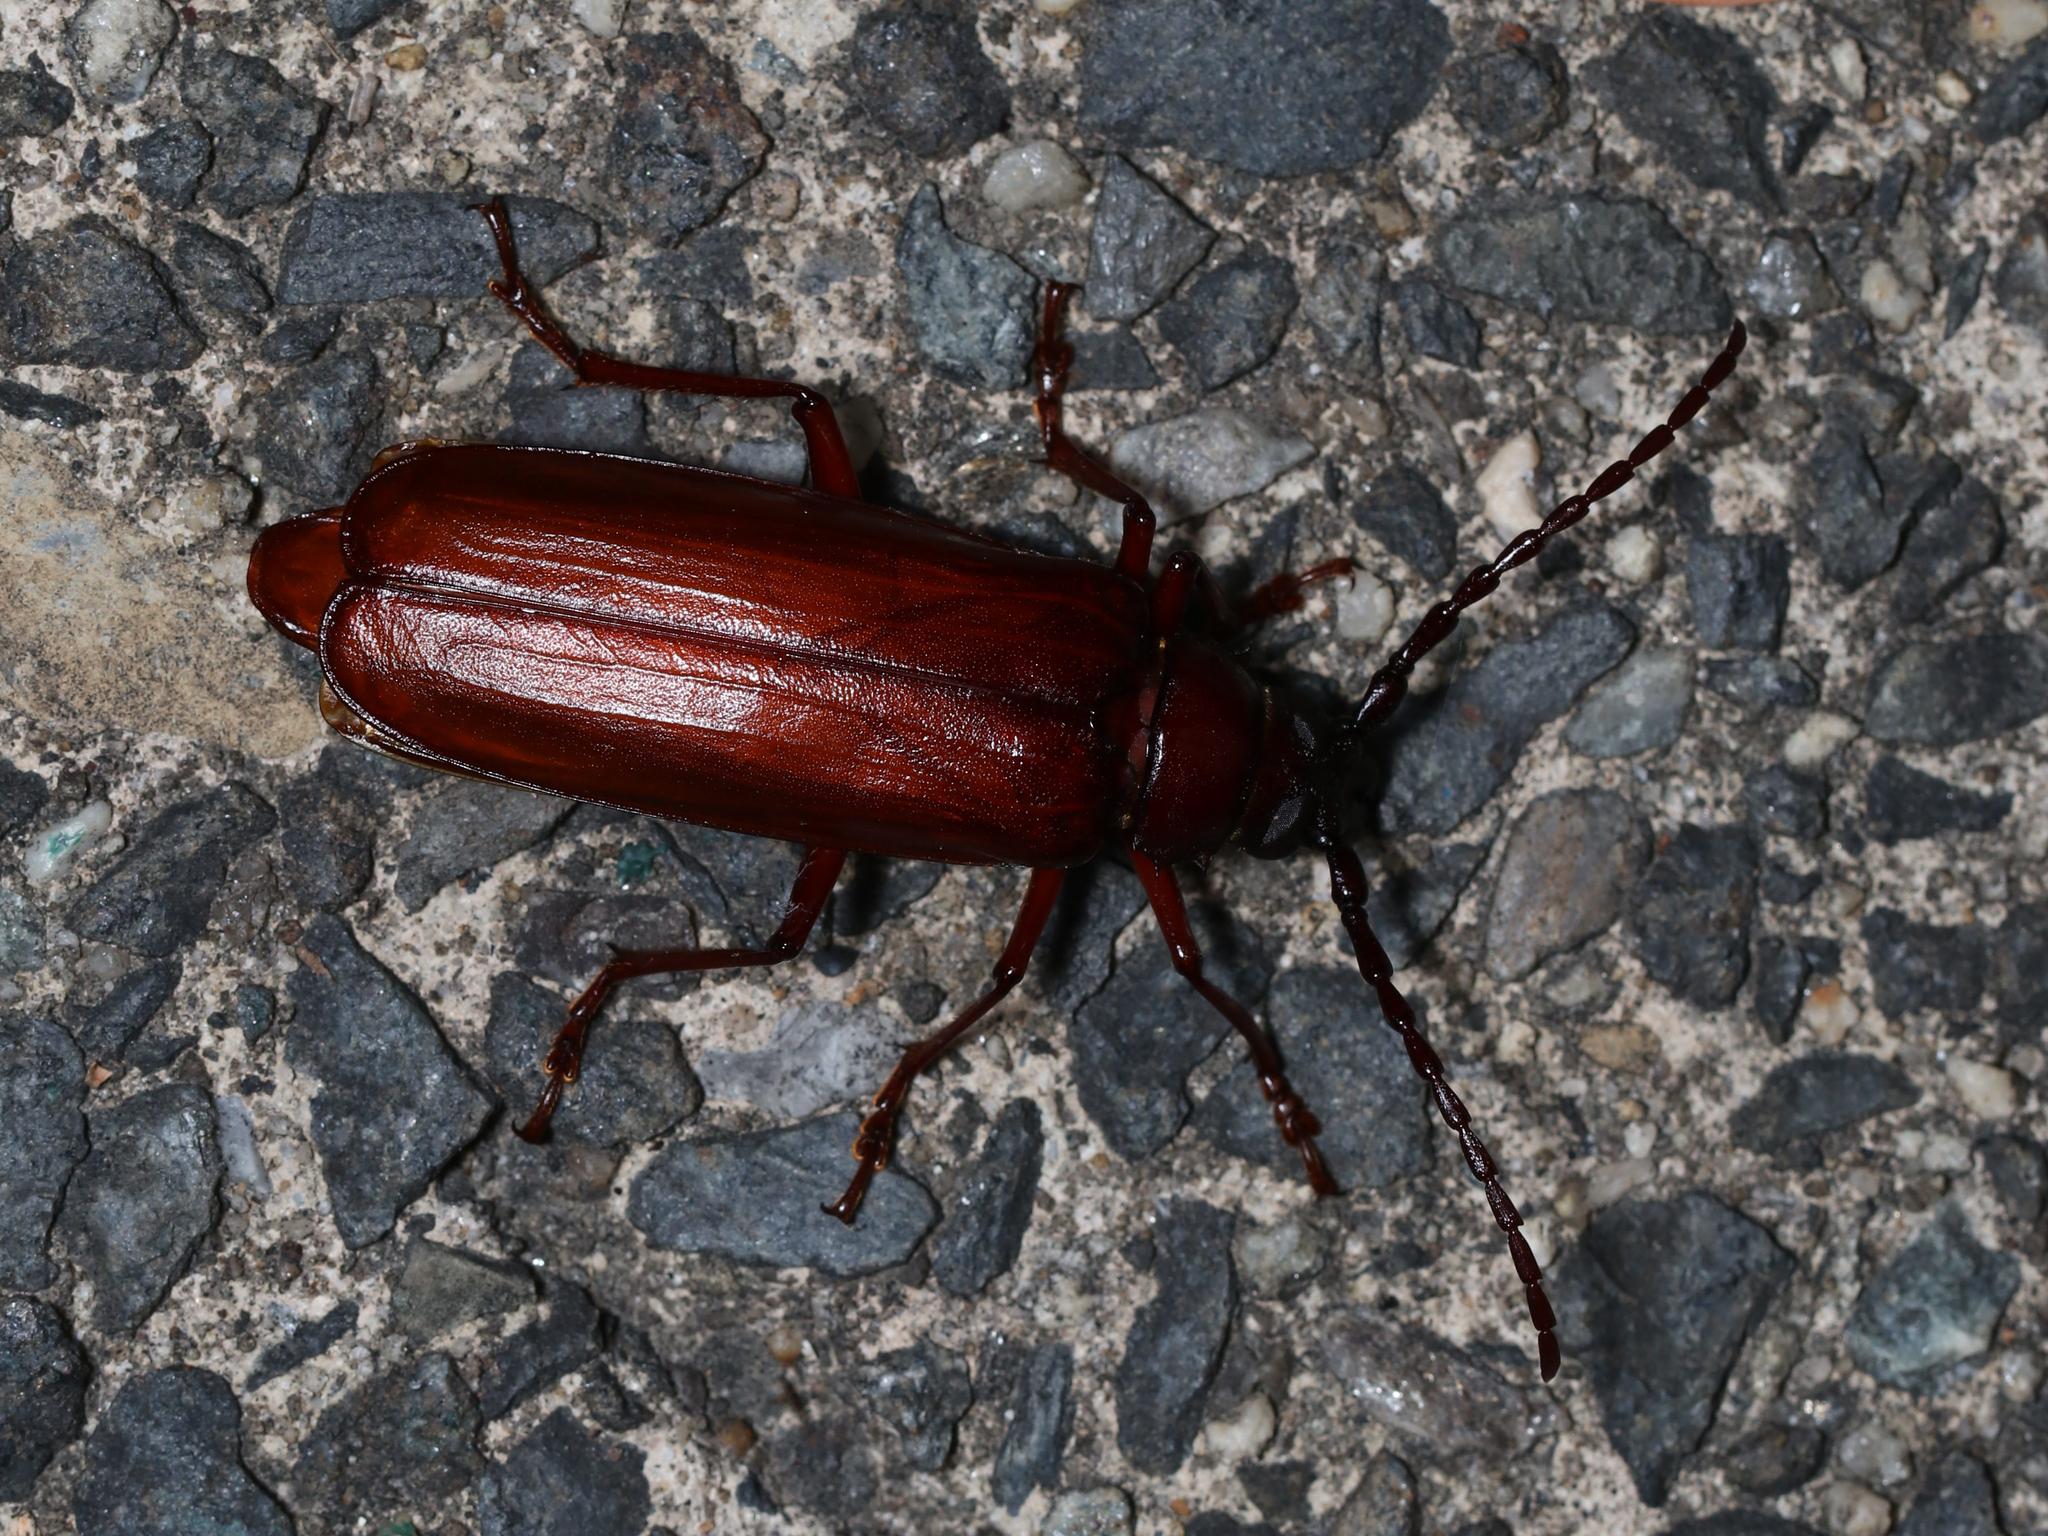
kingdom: Animalia
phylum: Arthropoda
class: Insecta
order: Coleoptera
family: Cerambycidae
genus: Orthosoma
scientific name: Orthosoma brunneum
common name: Brown prionid beetle
